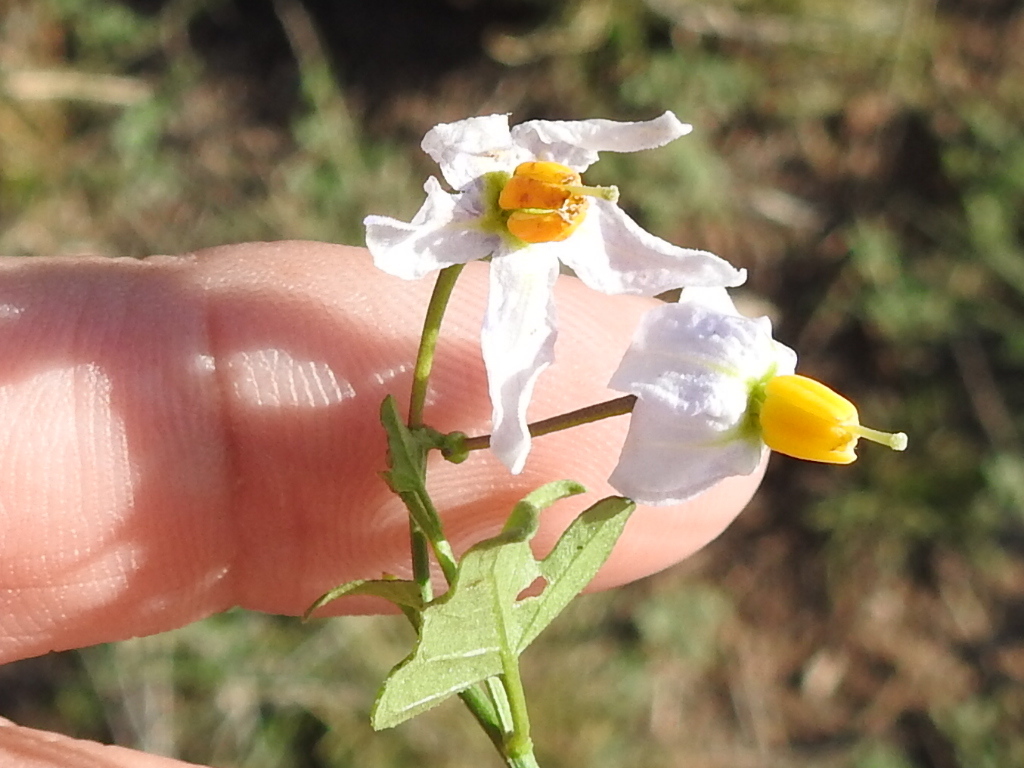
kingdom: Plantae
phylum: Tracheophyta
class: Magnoliopsida
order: Solanales
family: Solanaceae
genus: Solanum
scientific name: Solanum triquetrum
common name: Texas nightshade
